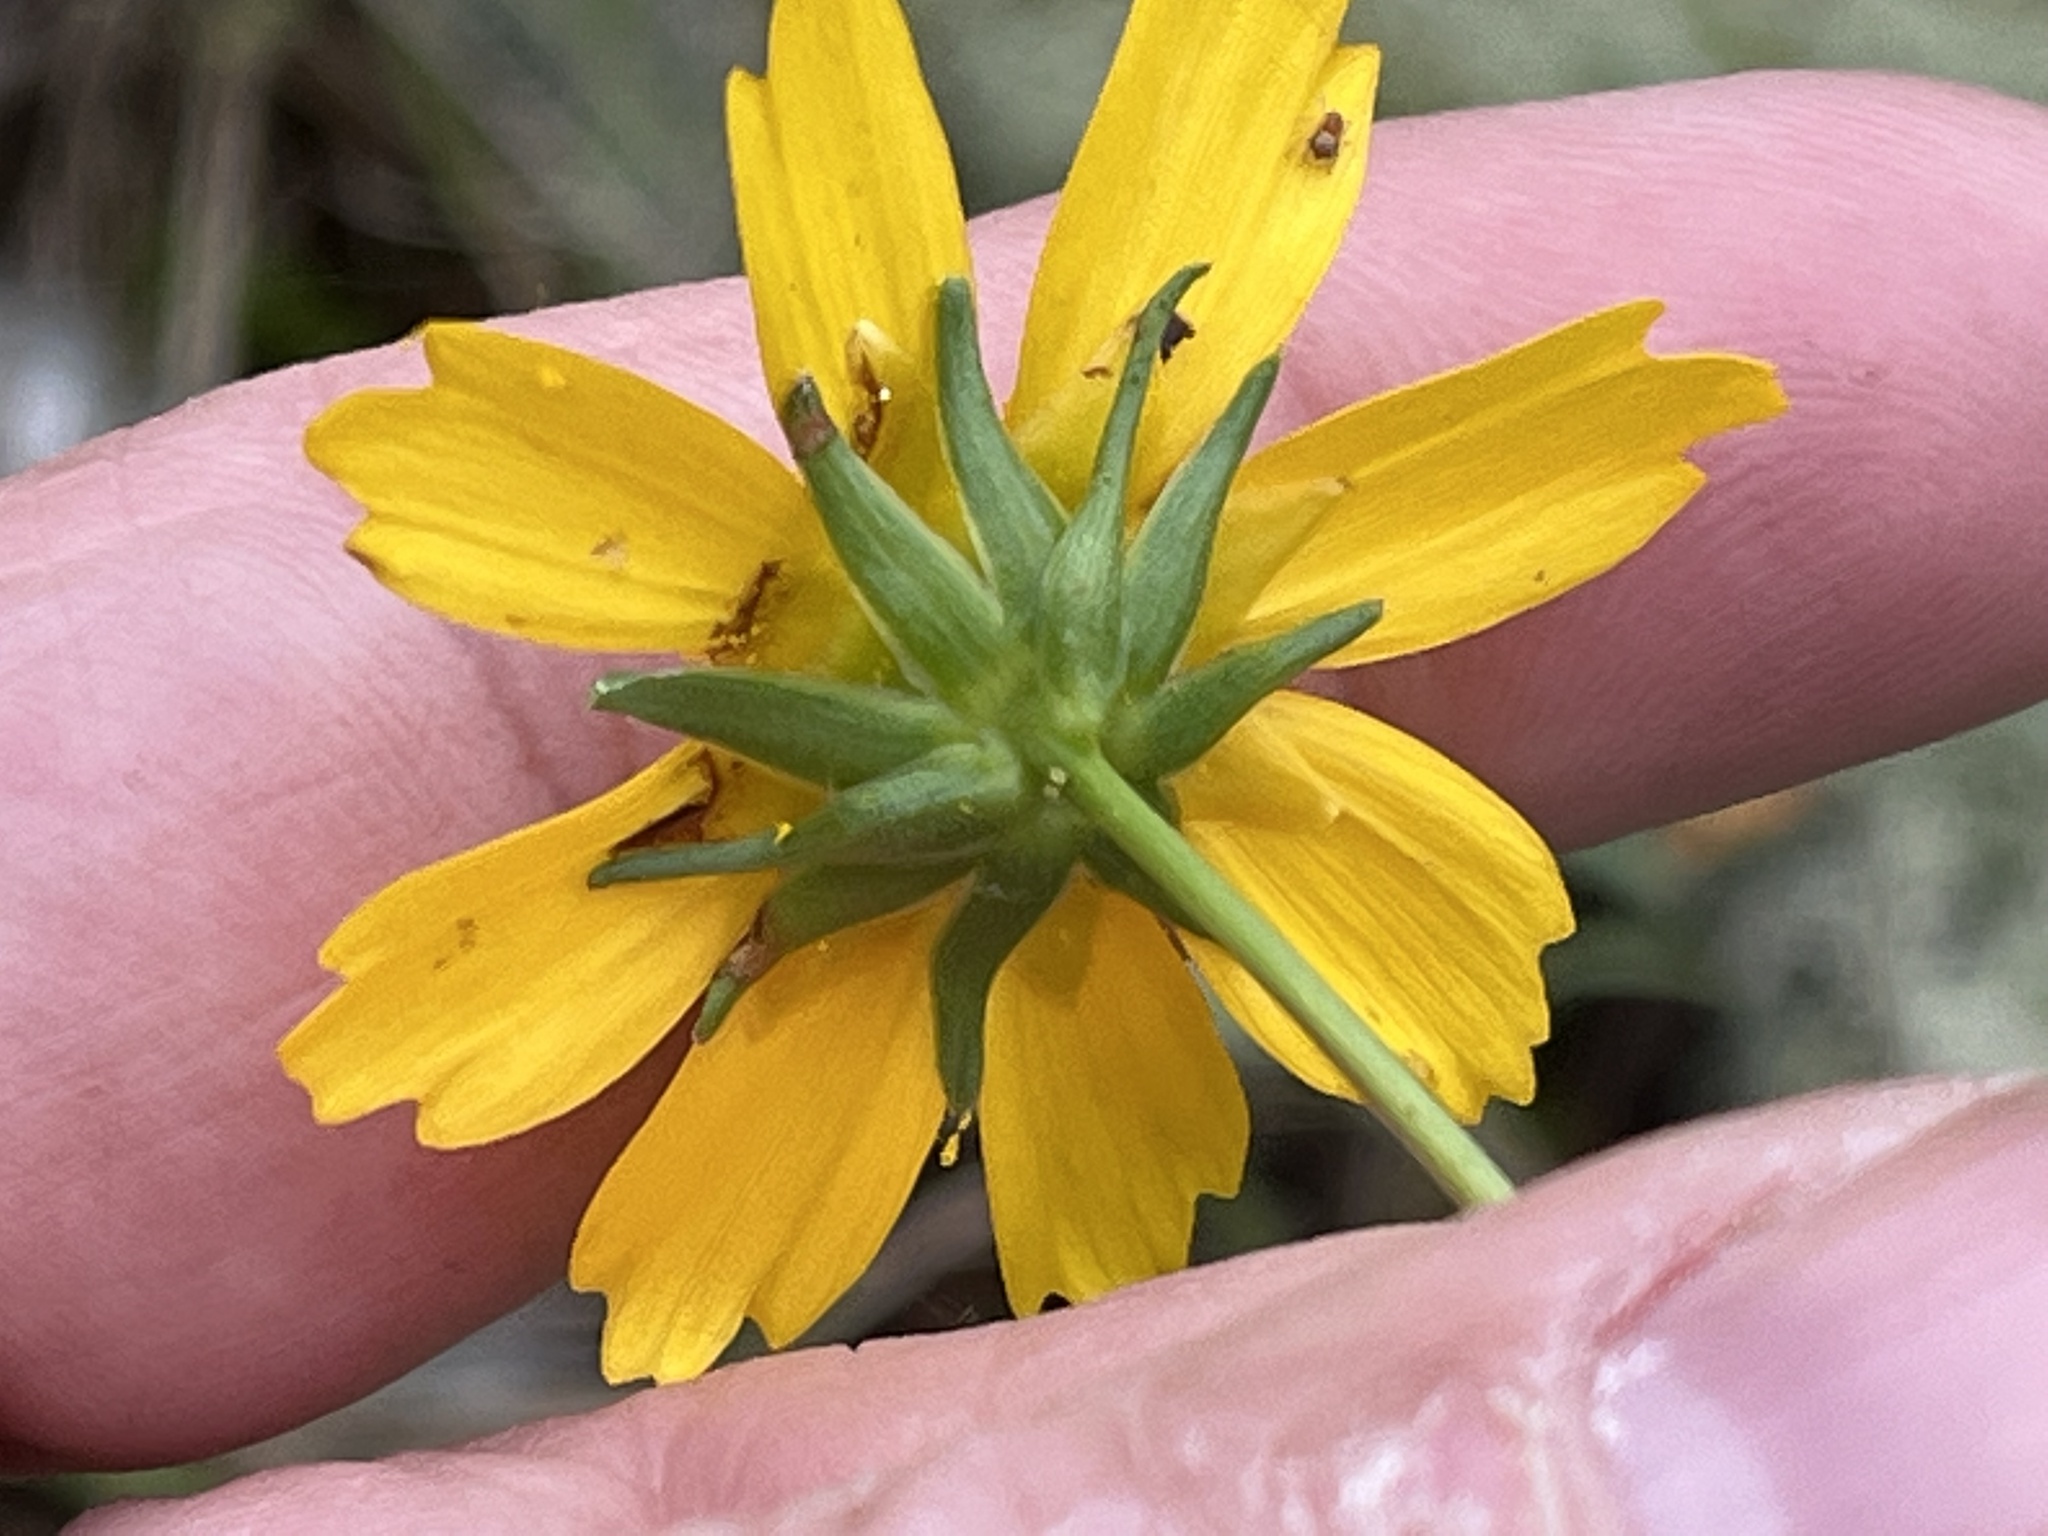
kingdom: Plantae
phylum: Tracheophyta
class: Magnoliopsida
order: Asterales
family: Asteraceae
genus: Coreopsis
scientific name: Coreopsis grandiflora
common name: Large-flowered tickseed
